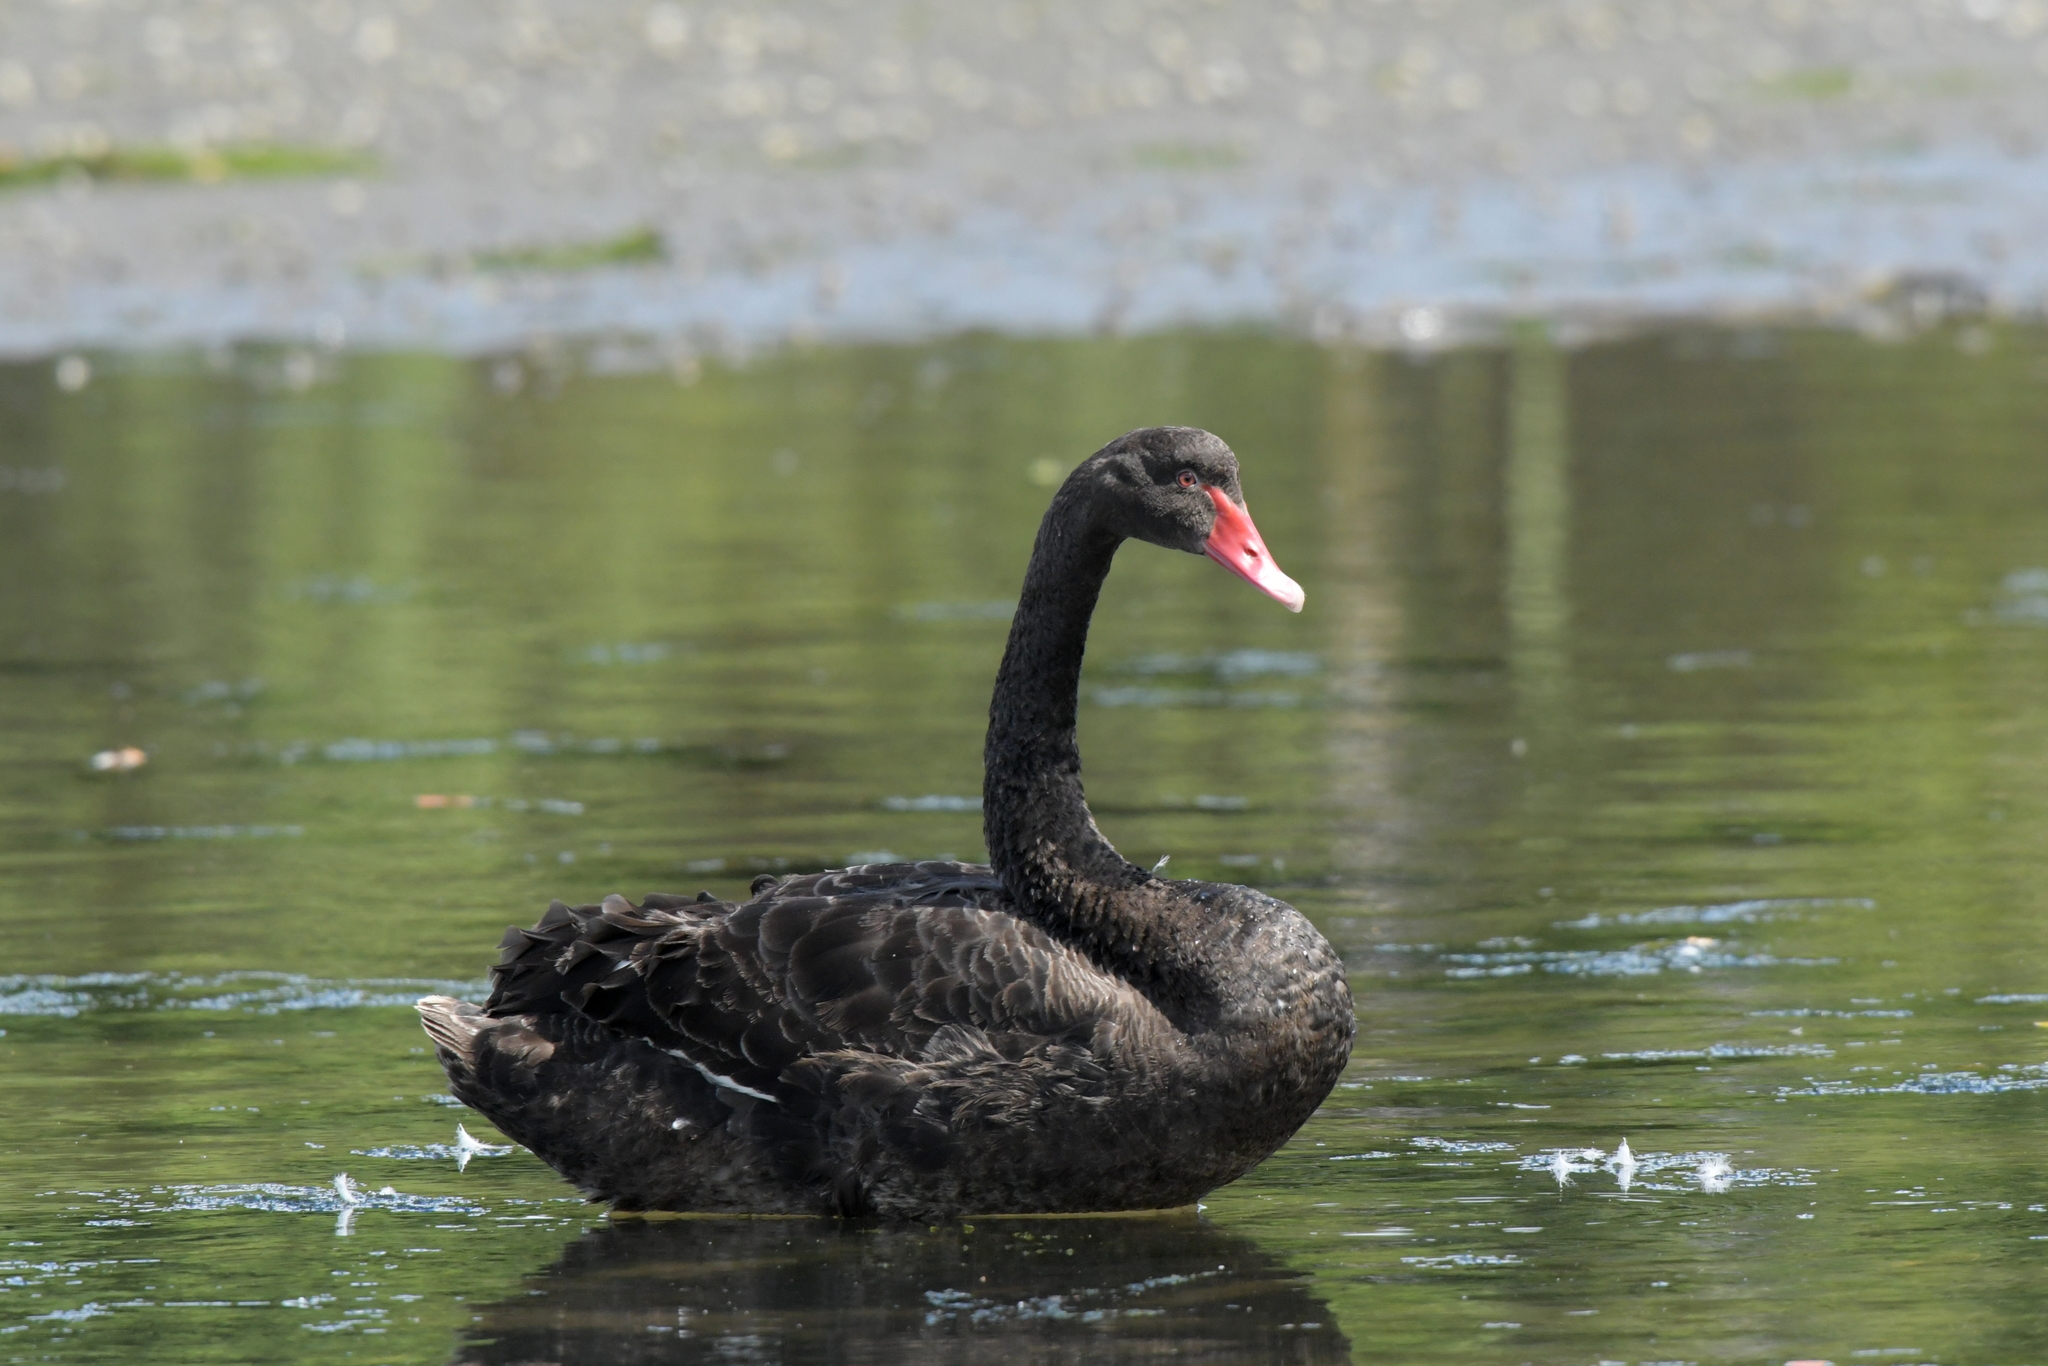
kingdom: Animalia
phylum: Chordata
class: Aves
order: Anseriformes
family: Anatidae
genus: Cygnus
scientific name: Cygnus atratus
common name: Black swan
